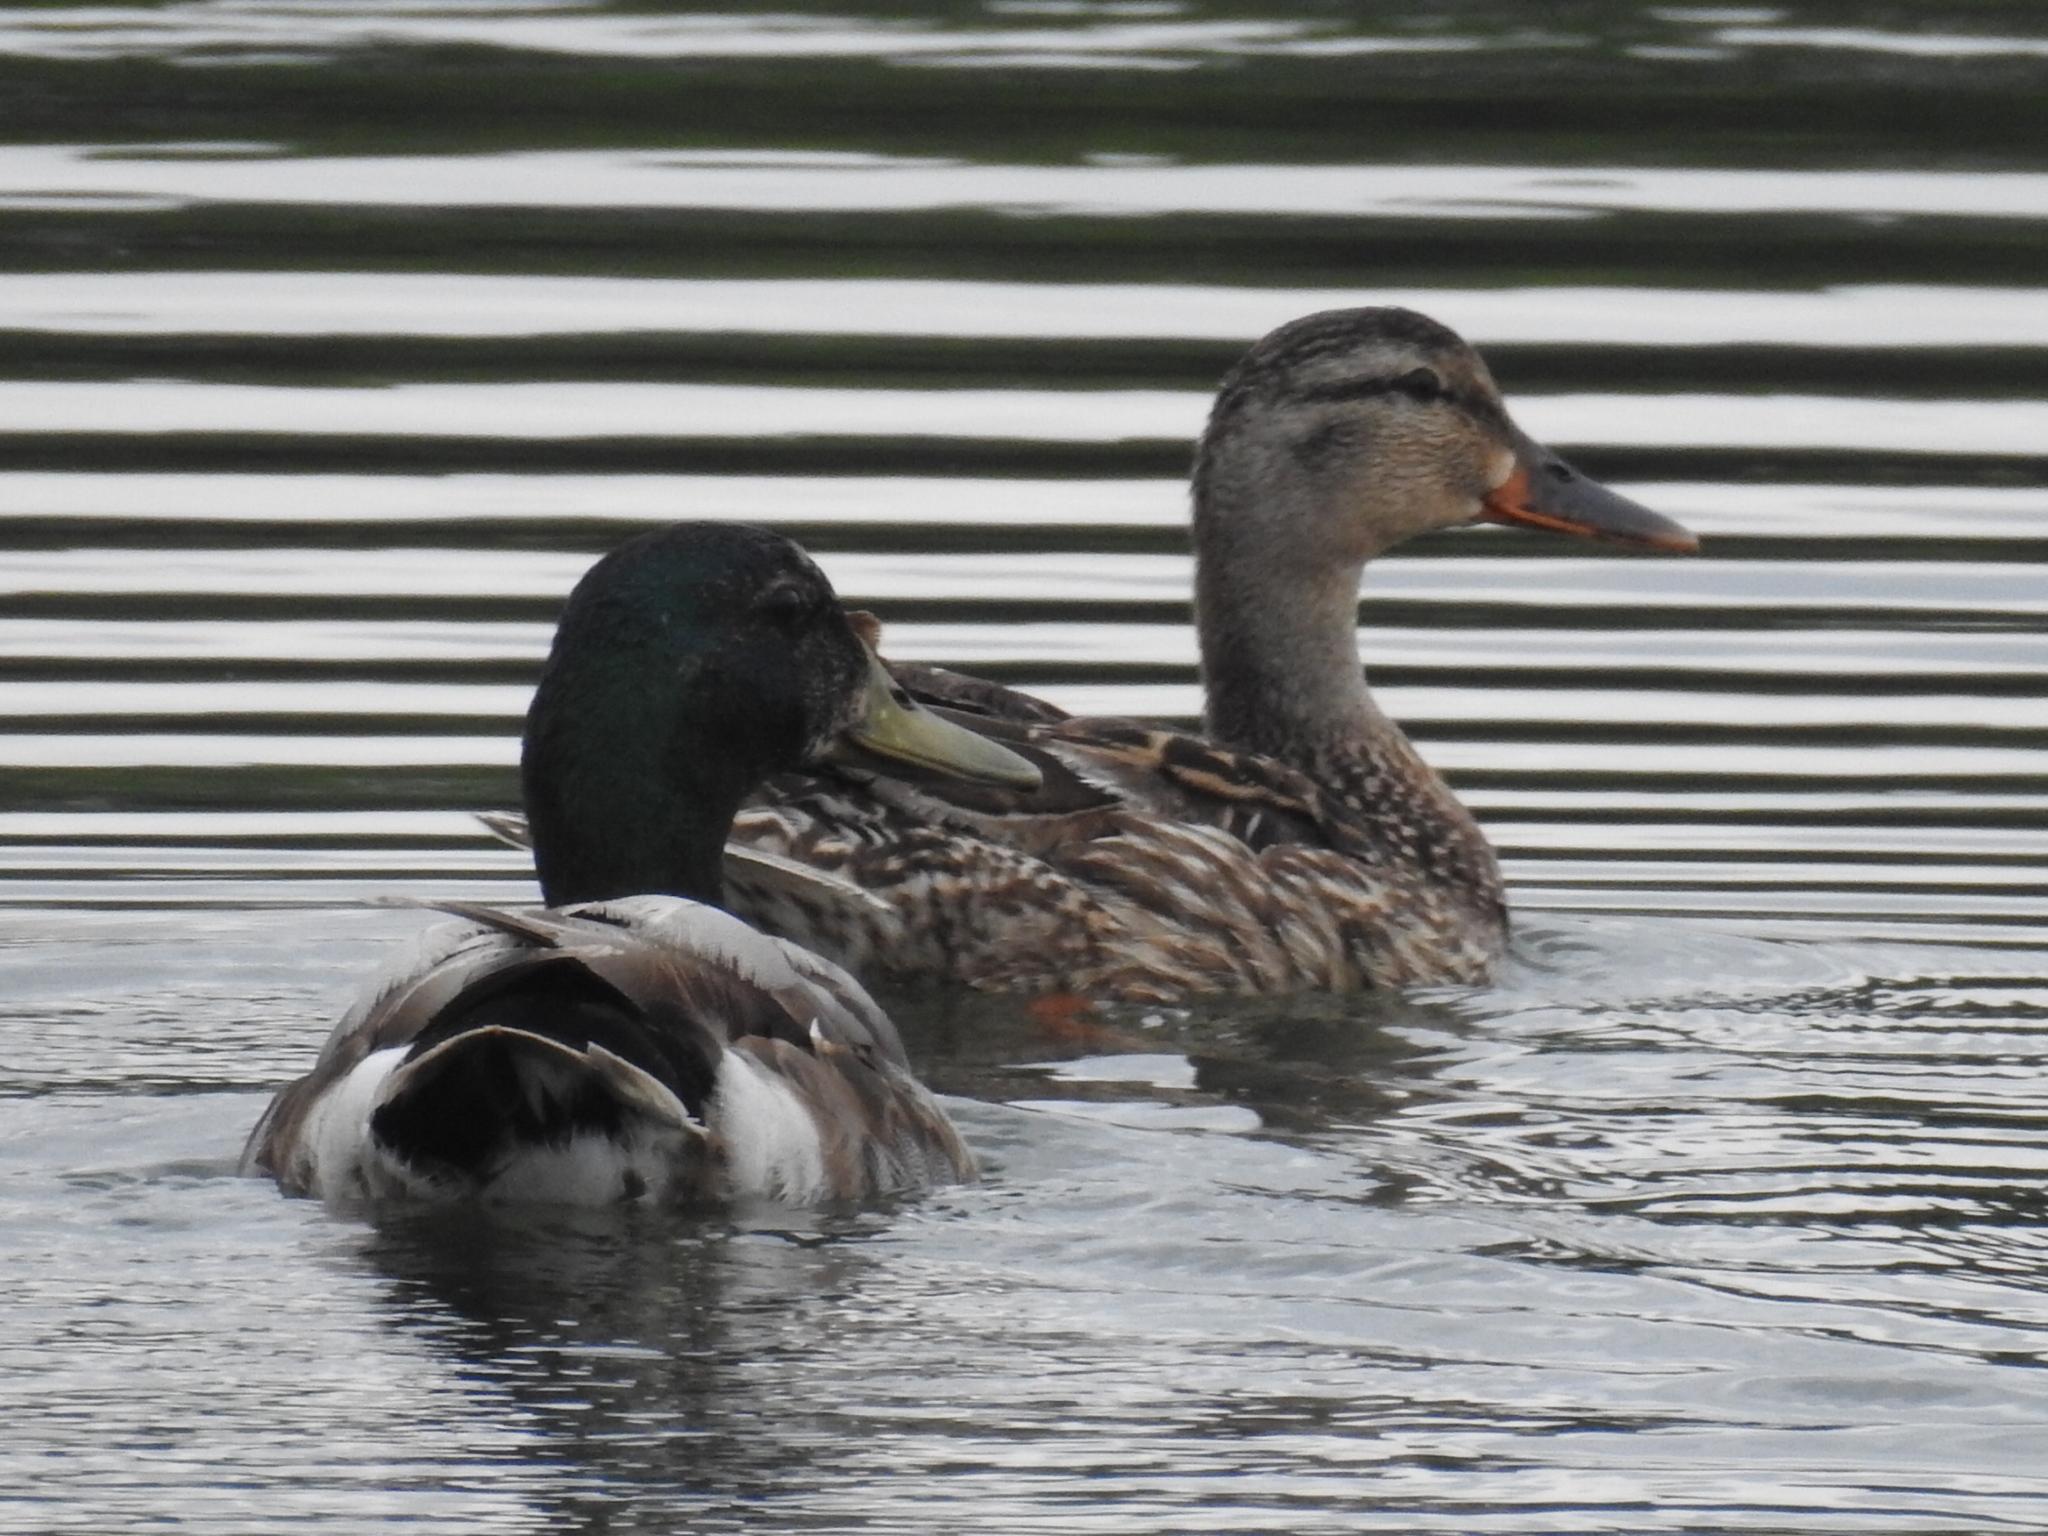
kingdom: Animalia
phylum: Chordata
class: Aves
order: Anseriformes
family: Anatidae
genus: Anas
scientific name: Anas platyrhynchos
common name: Mallard
